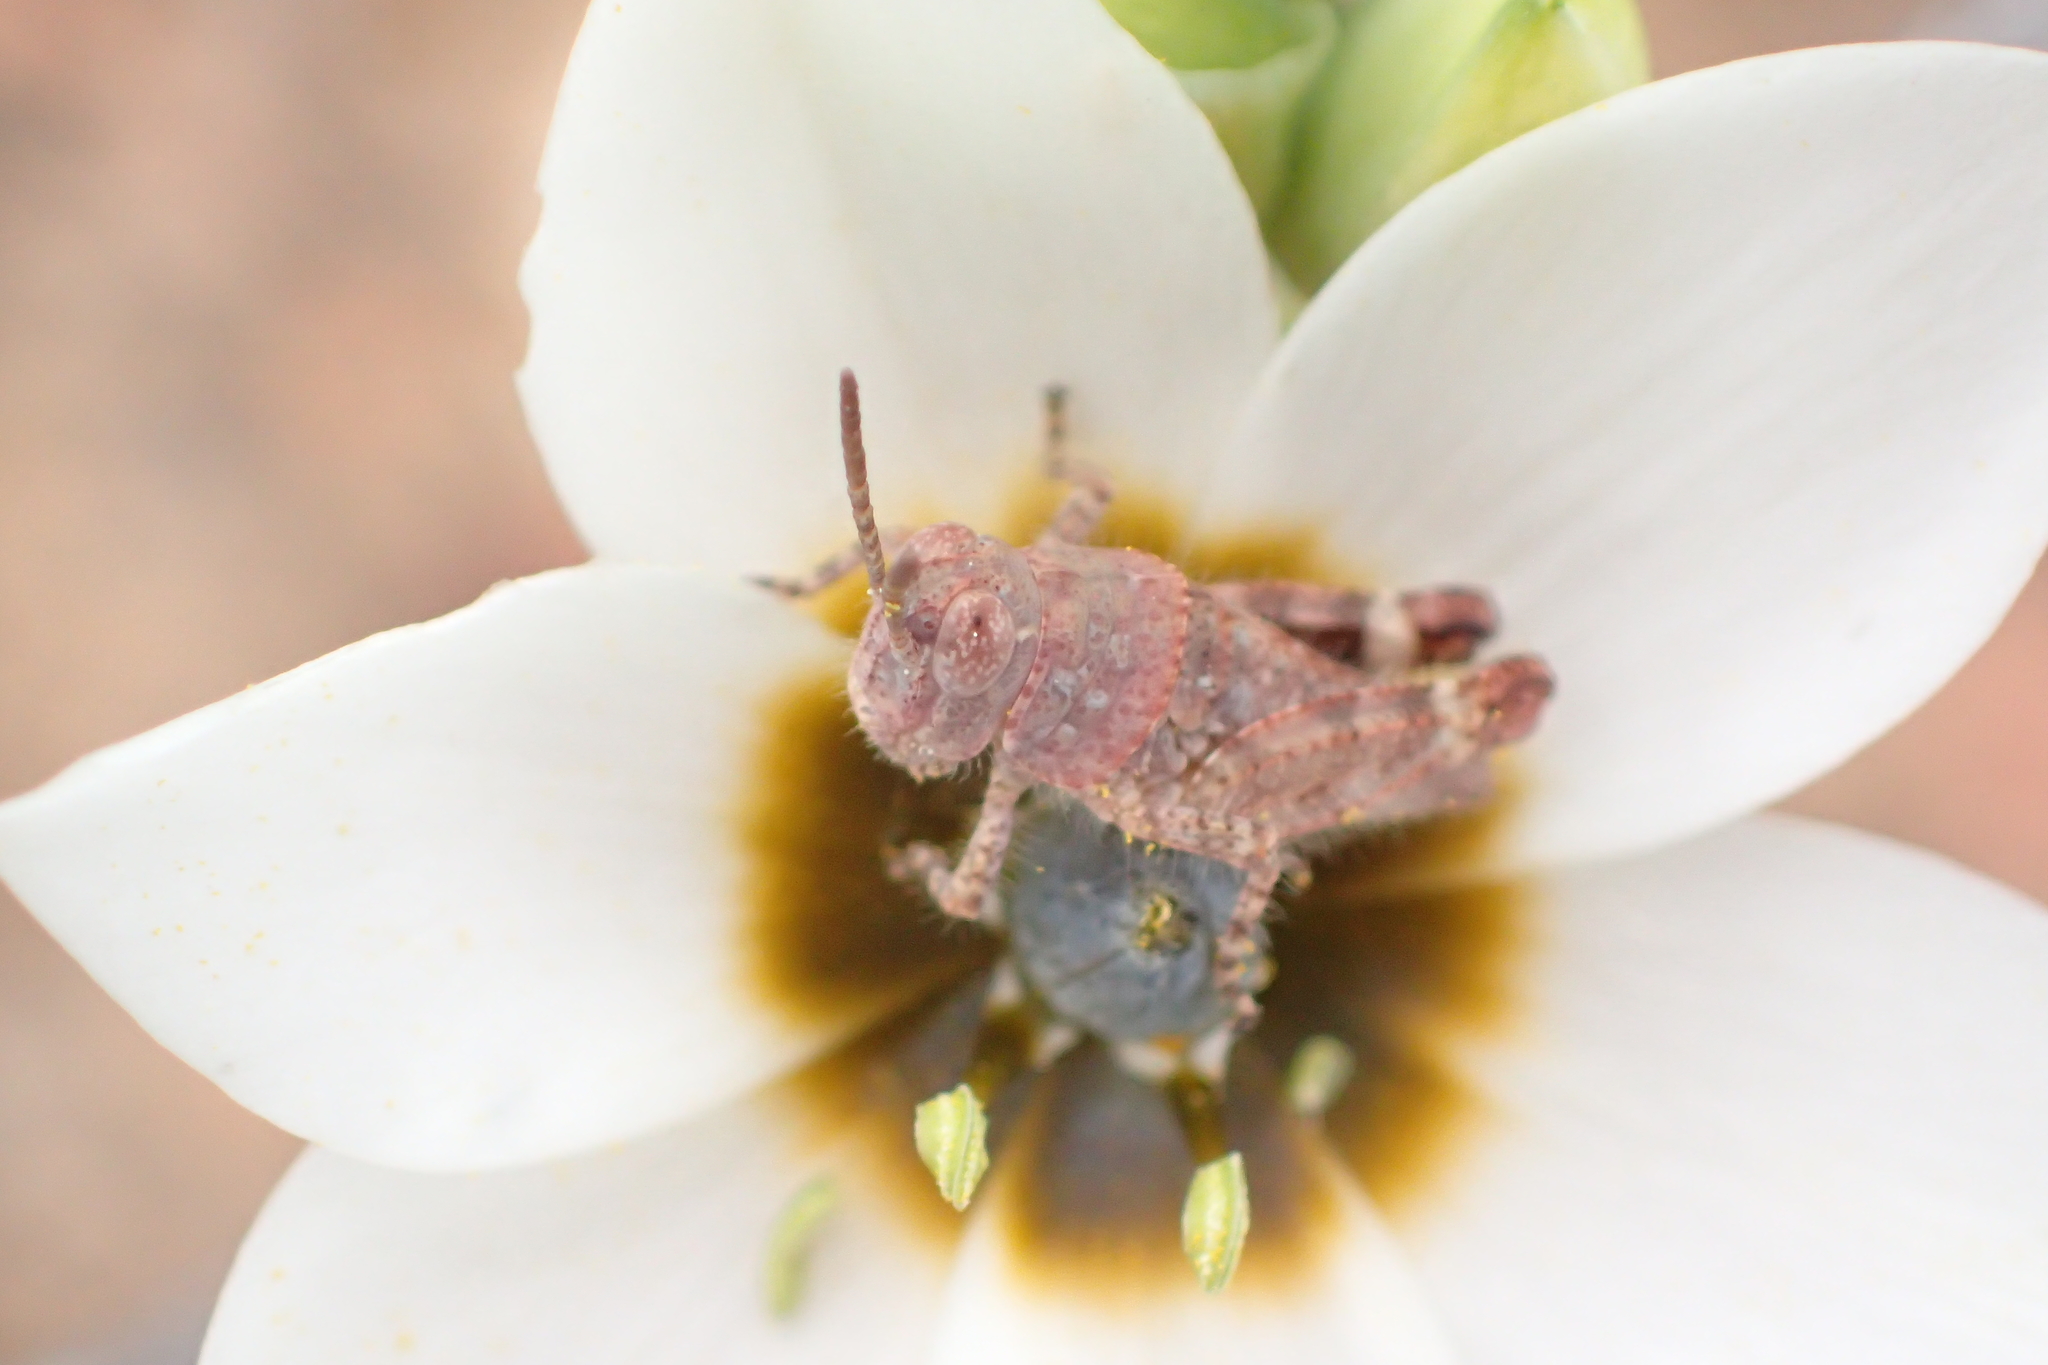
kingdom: Plantae
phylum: Tracheophyta
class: Liliopsida
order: Asparagales
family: Asparagaceae
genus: Ornithogalum
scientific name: Ornithogalum dubium
